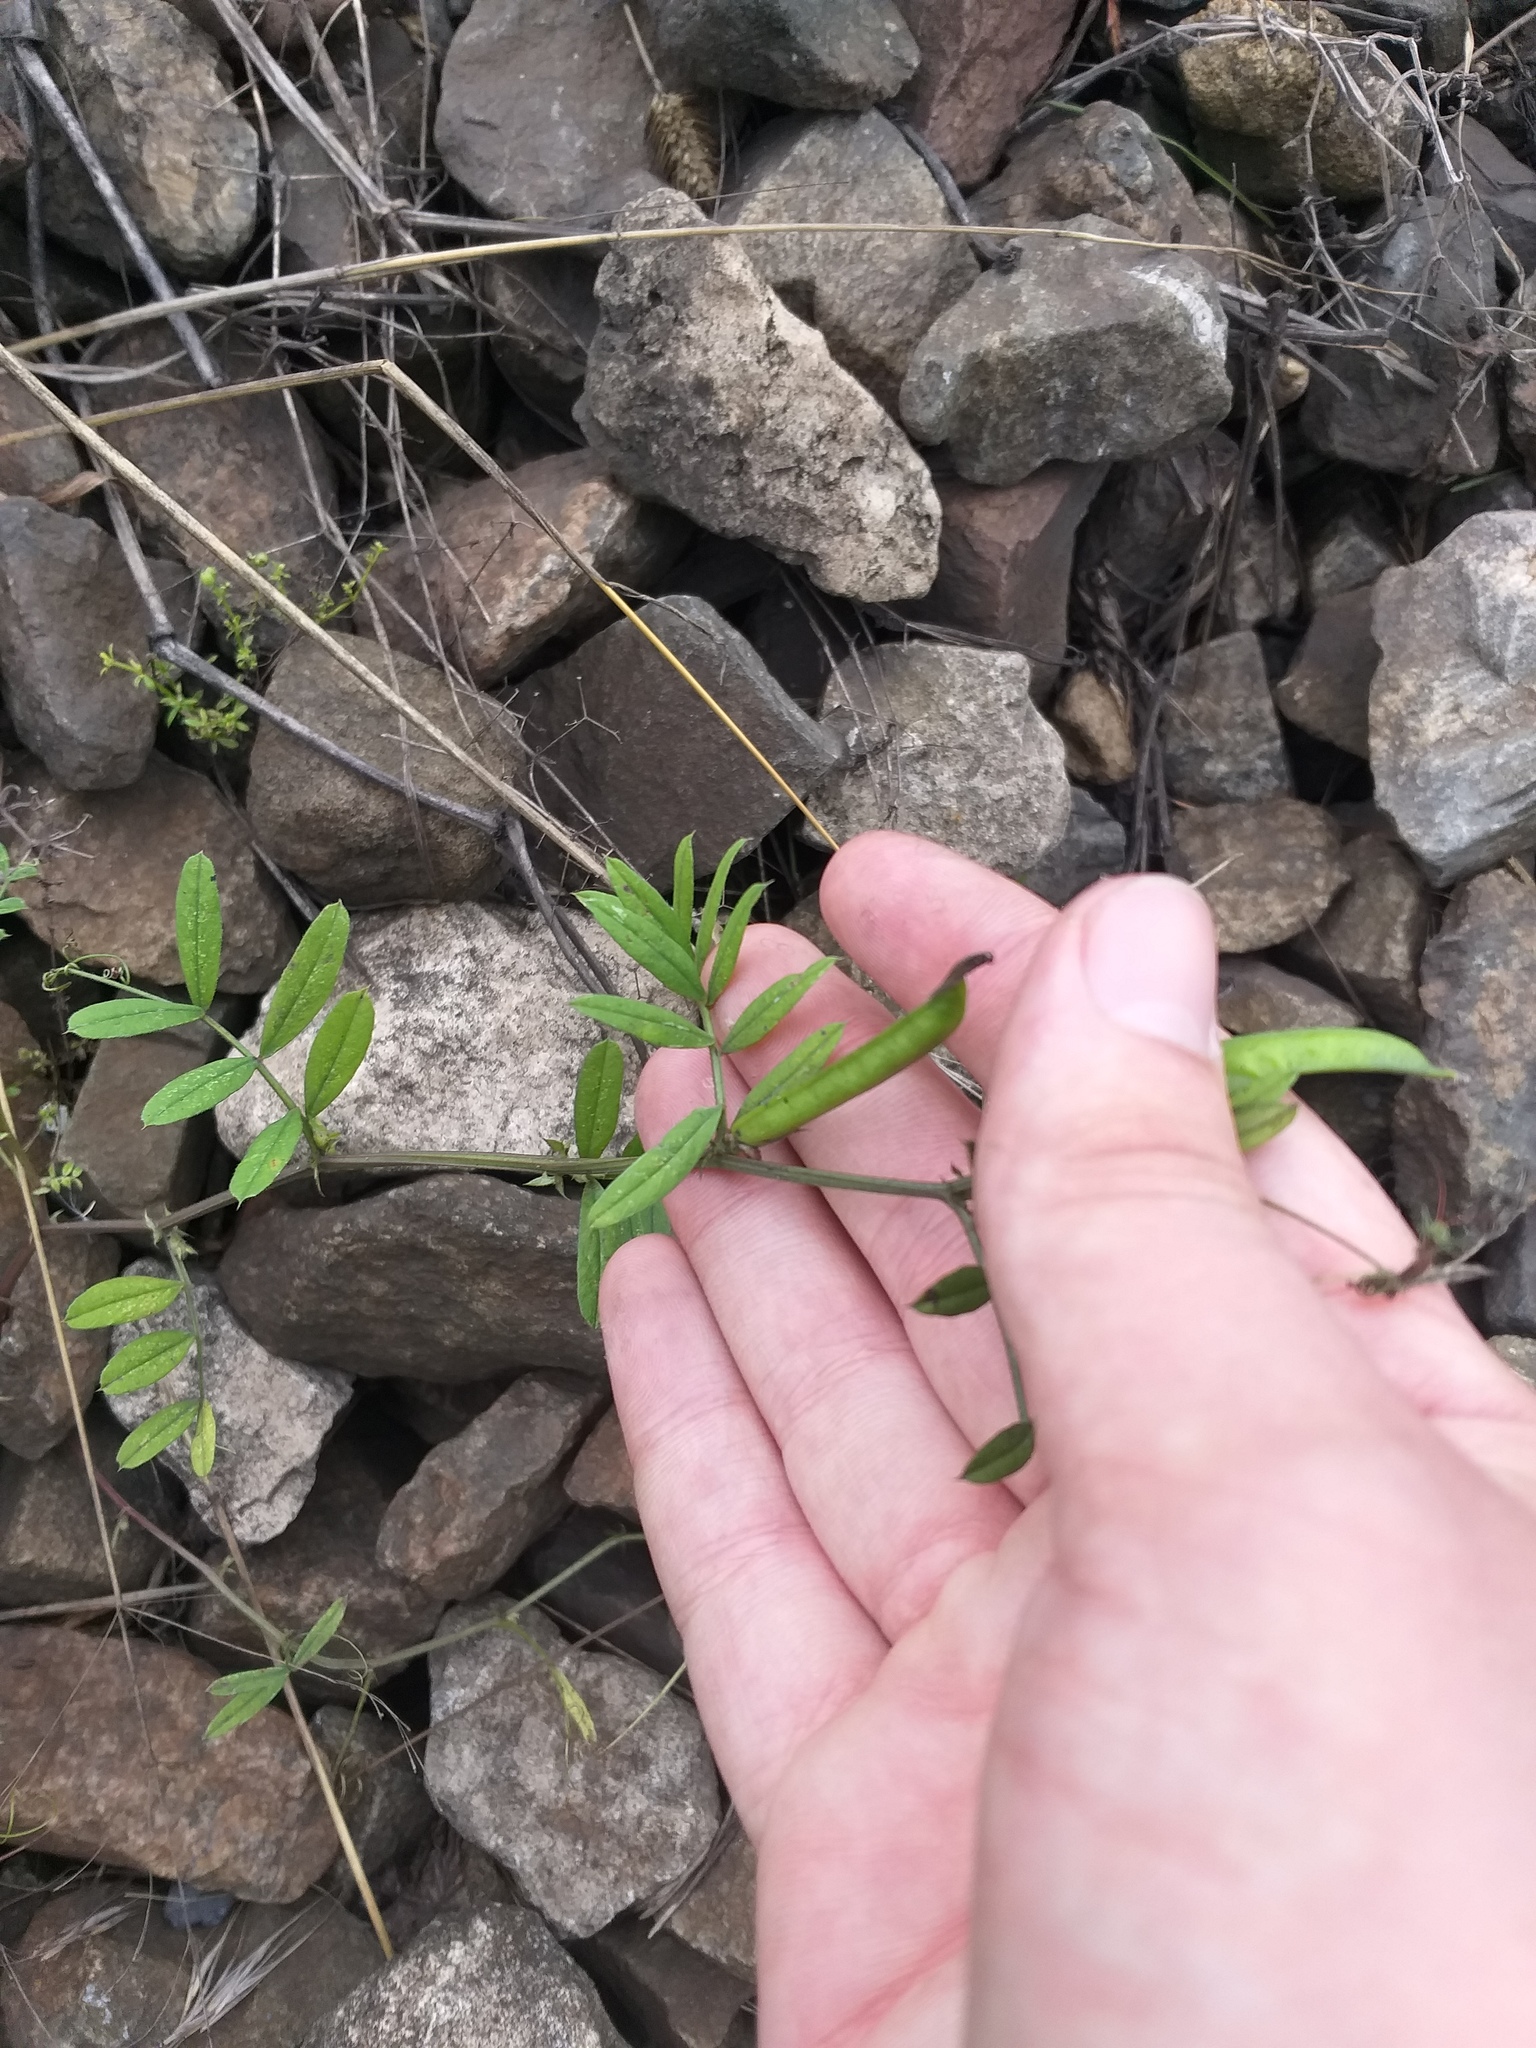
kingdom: Plantae
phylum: Tracheophyta
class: Magnoliopsida
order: Fabales
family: Fabaceae
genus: Vicia
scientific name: Vicia sativa
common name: Garden vetch
